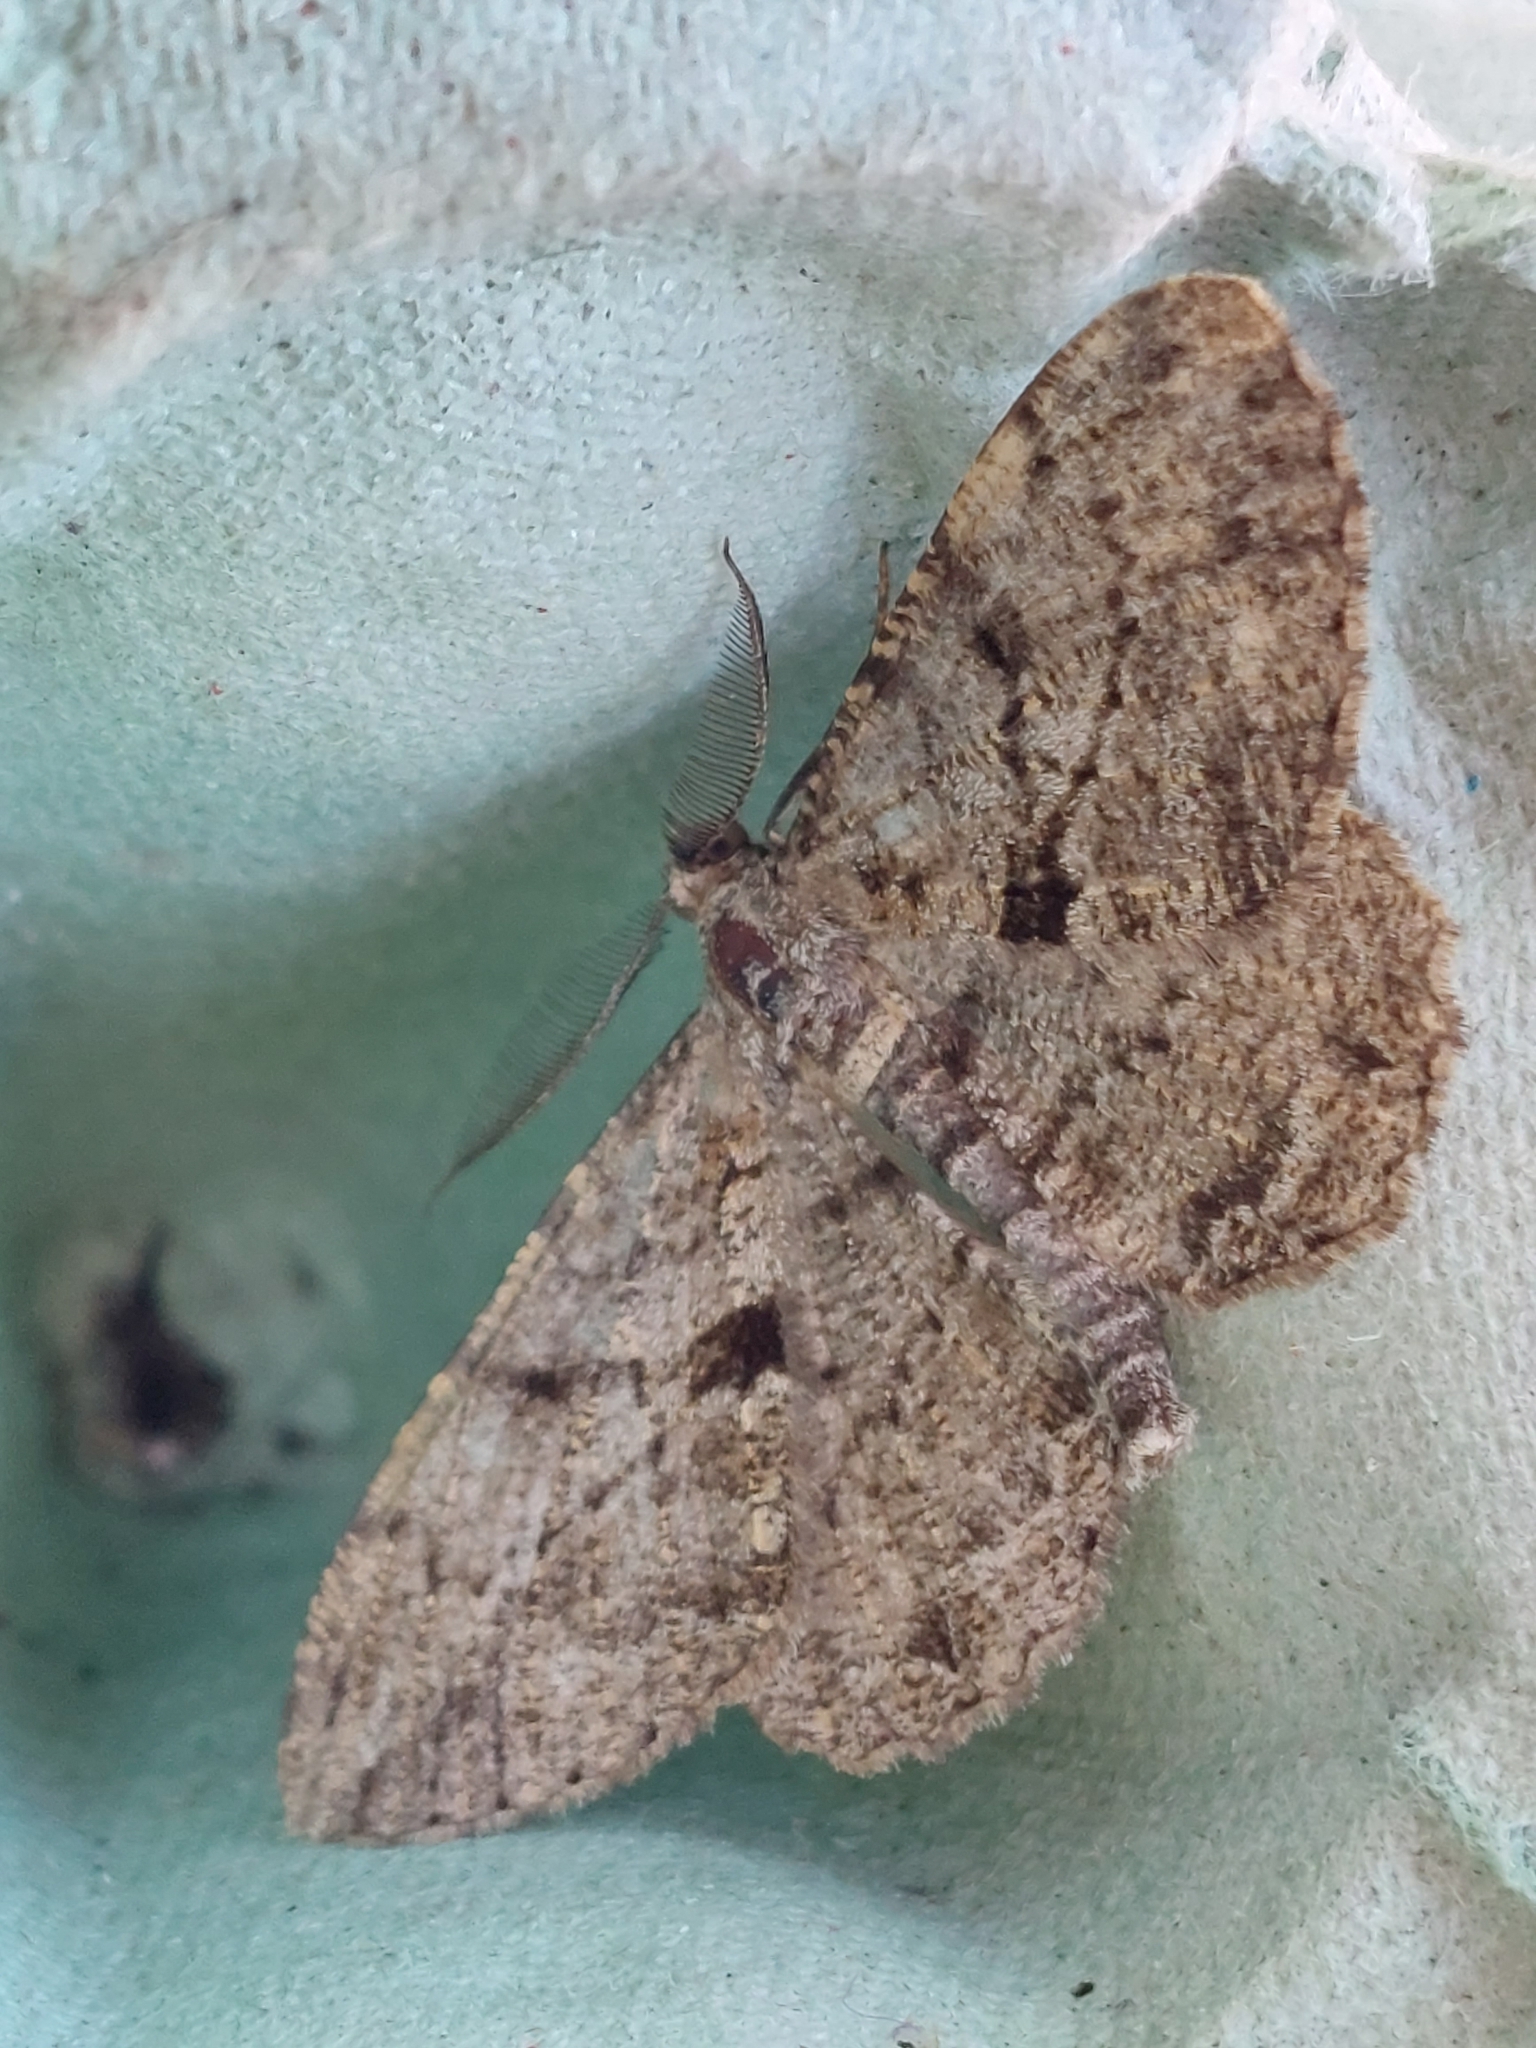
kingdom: Animalia
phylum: Arthropoda
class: Insecta
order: Lepidoptera
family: Geometridae
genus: Peribatodes
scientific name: Peribatodes rhomboidaria
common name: Willow beauty
